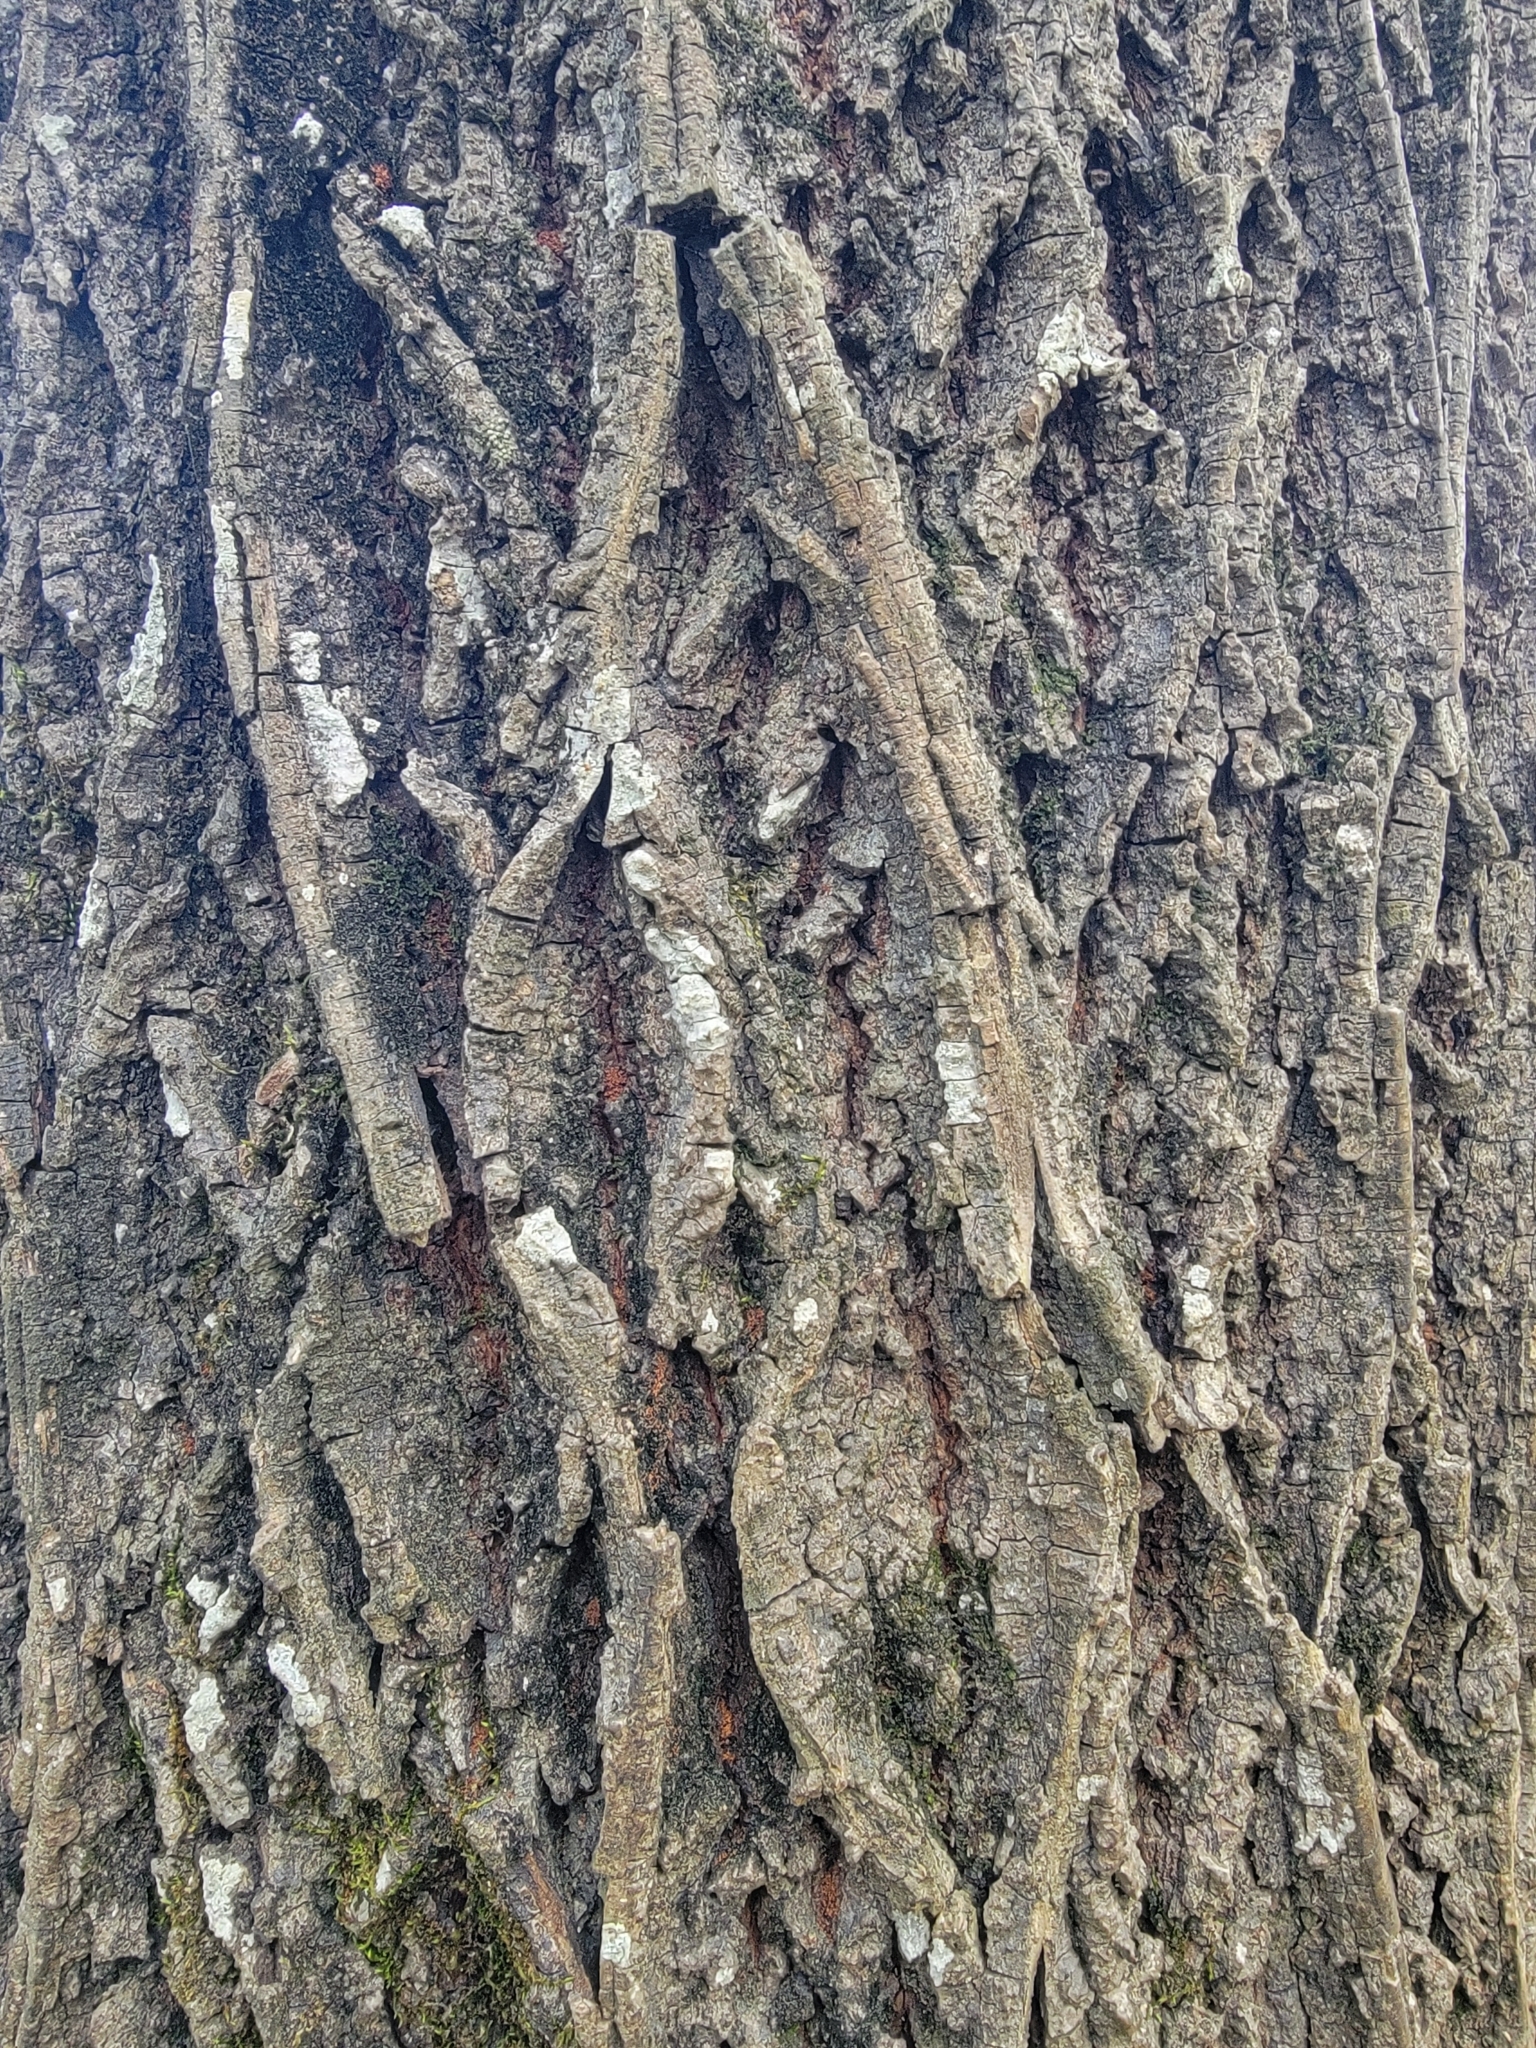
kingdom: Plantae
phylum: Tracheophyta
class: Magnoliopsida
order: Lamiales
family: Oleaceae
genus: Fraxinus
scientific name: Fraxinus americana
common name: White ash
